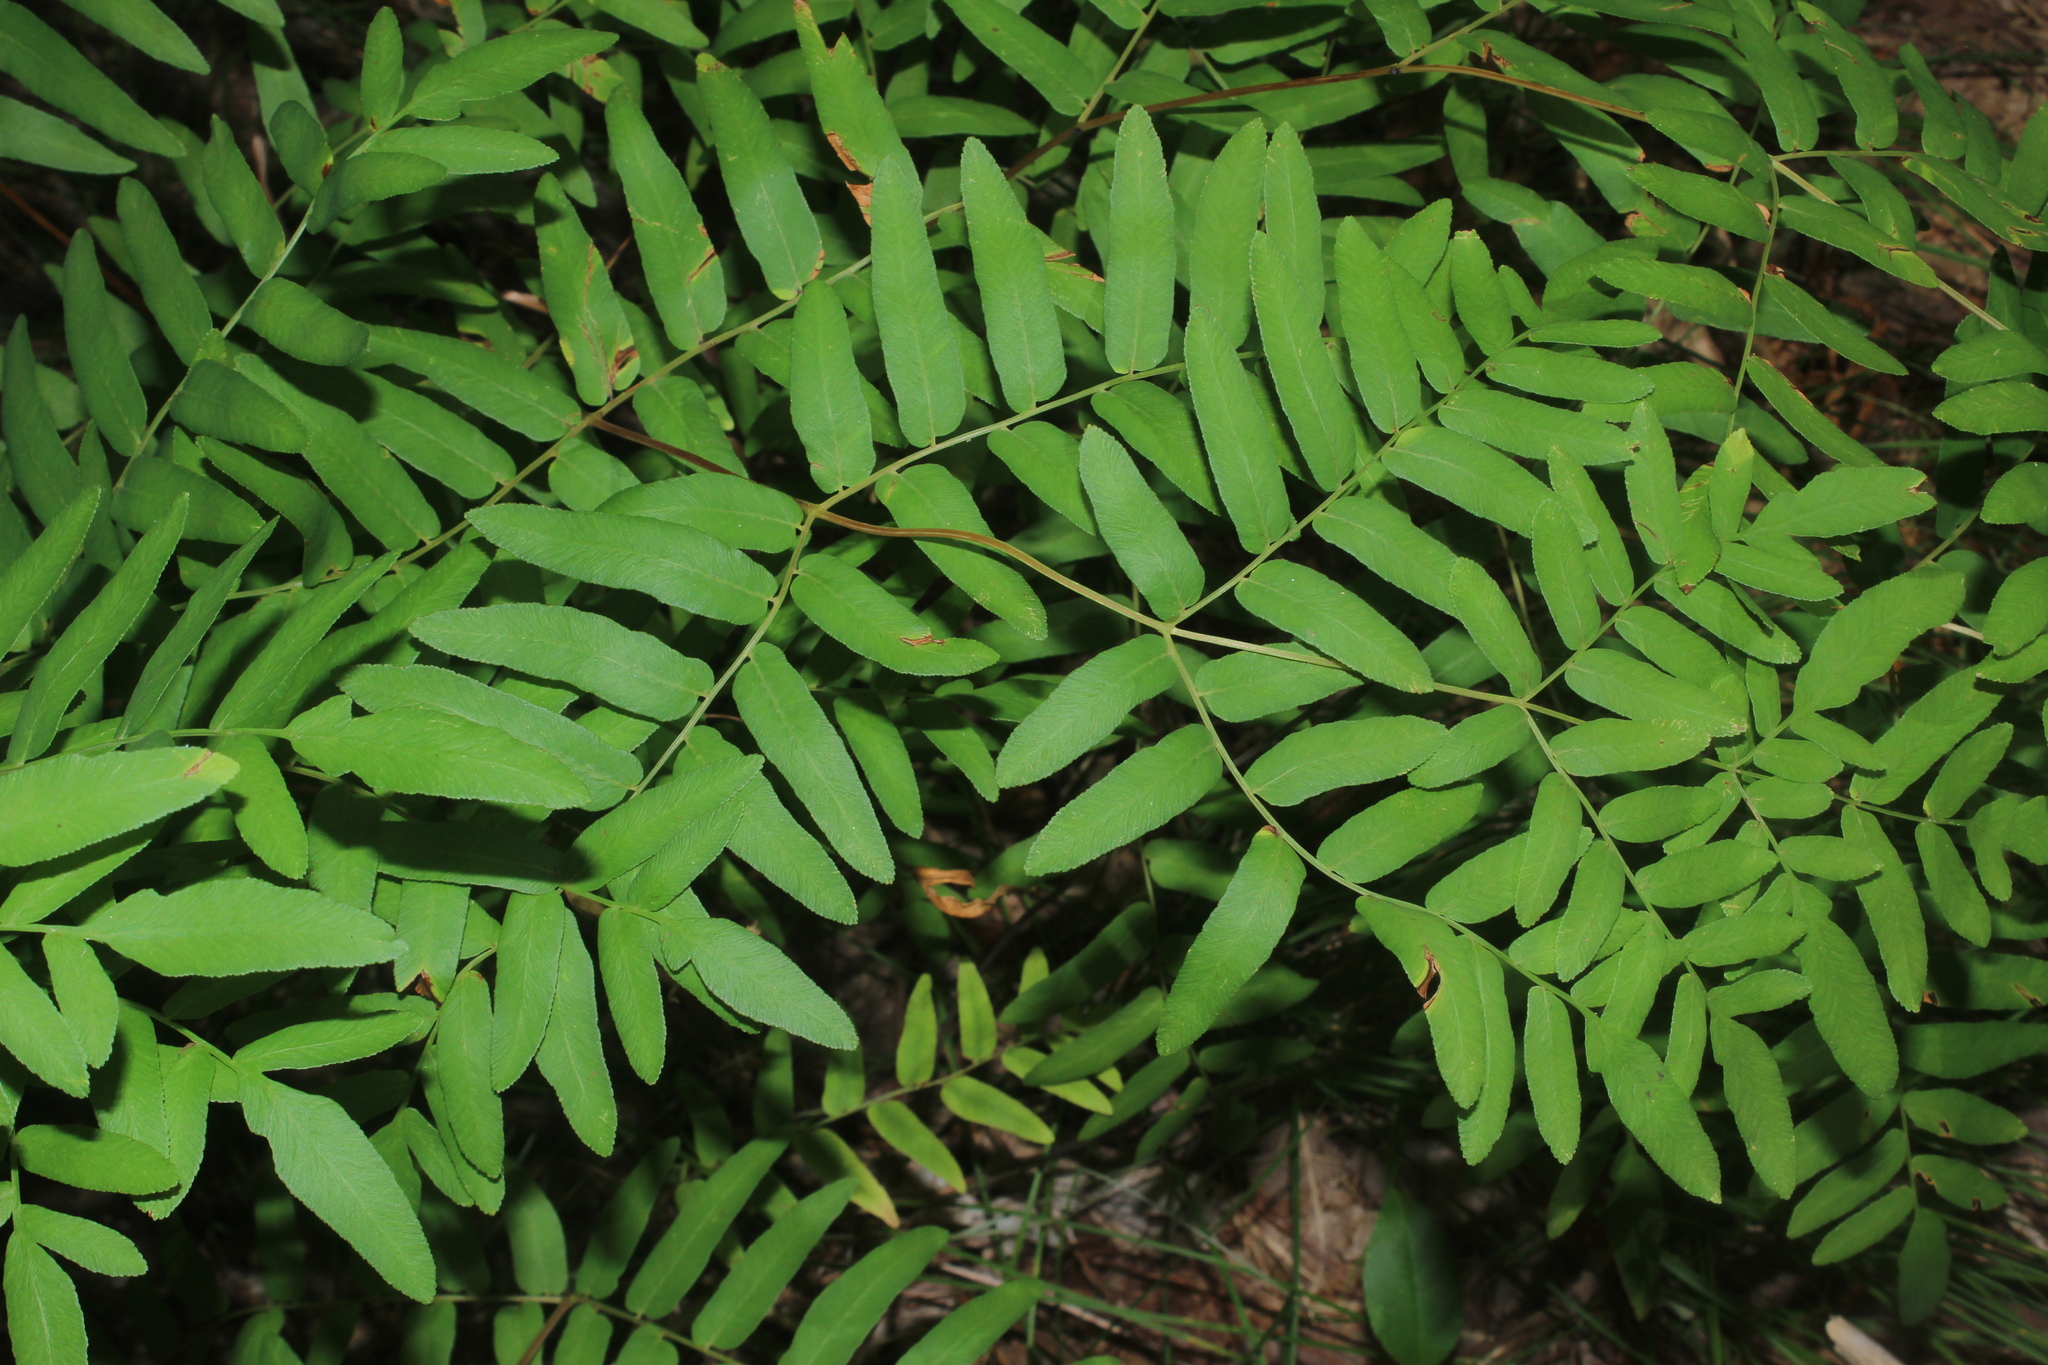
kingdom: Plantae
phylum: Tracheophyta
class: Polypodiopsida
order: Osmundales
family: Osmundaceae
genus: Osmunda
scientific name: Osmunda spectabilis
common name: American royal fern
